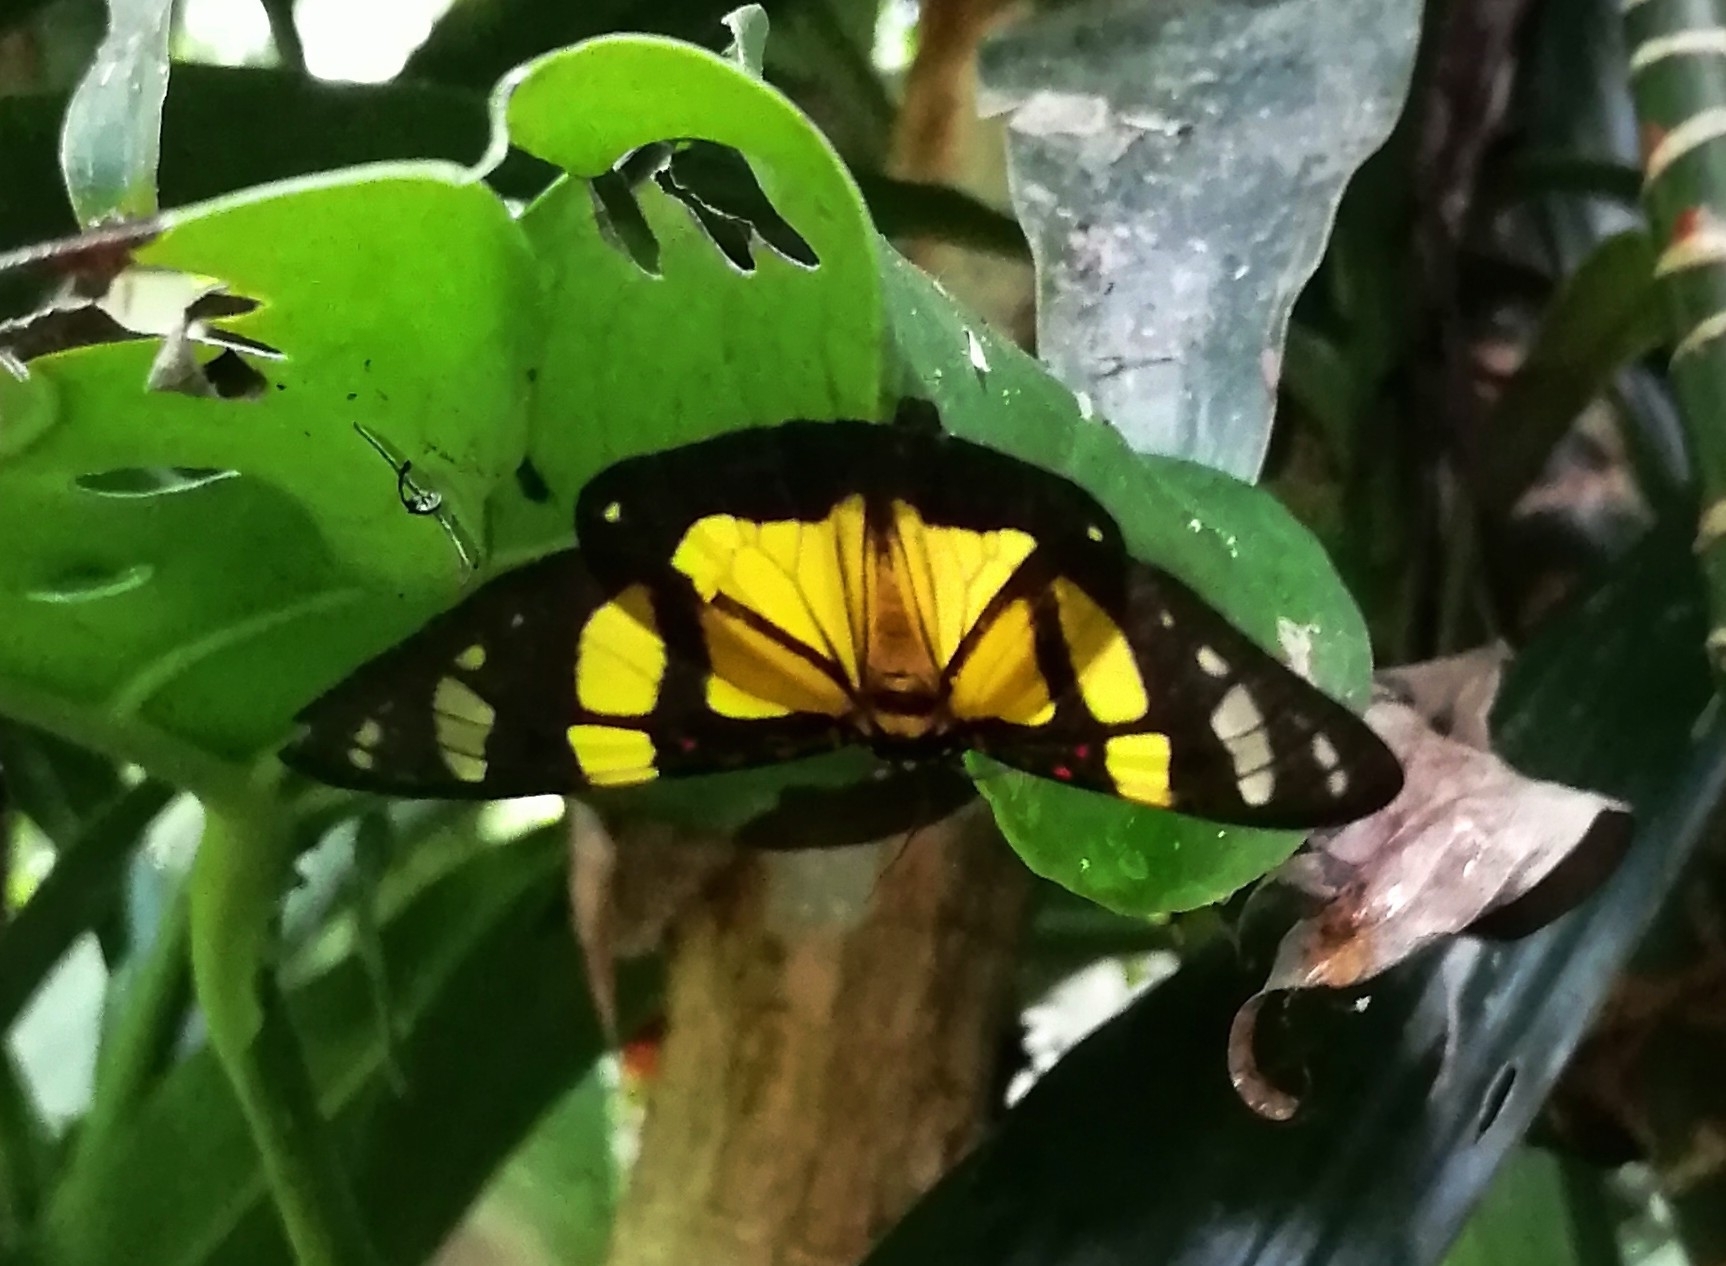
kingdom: Animalia
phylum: Arthropoda
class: Insecta
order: Lepidoptera
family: Erebidae
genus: Phaloe
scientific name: Phaloe
